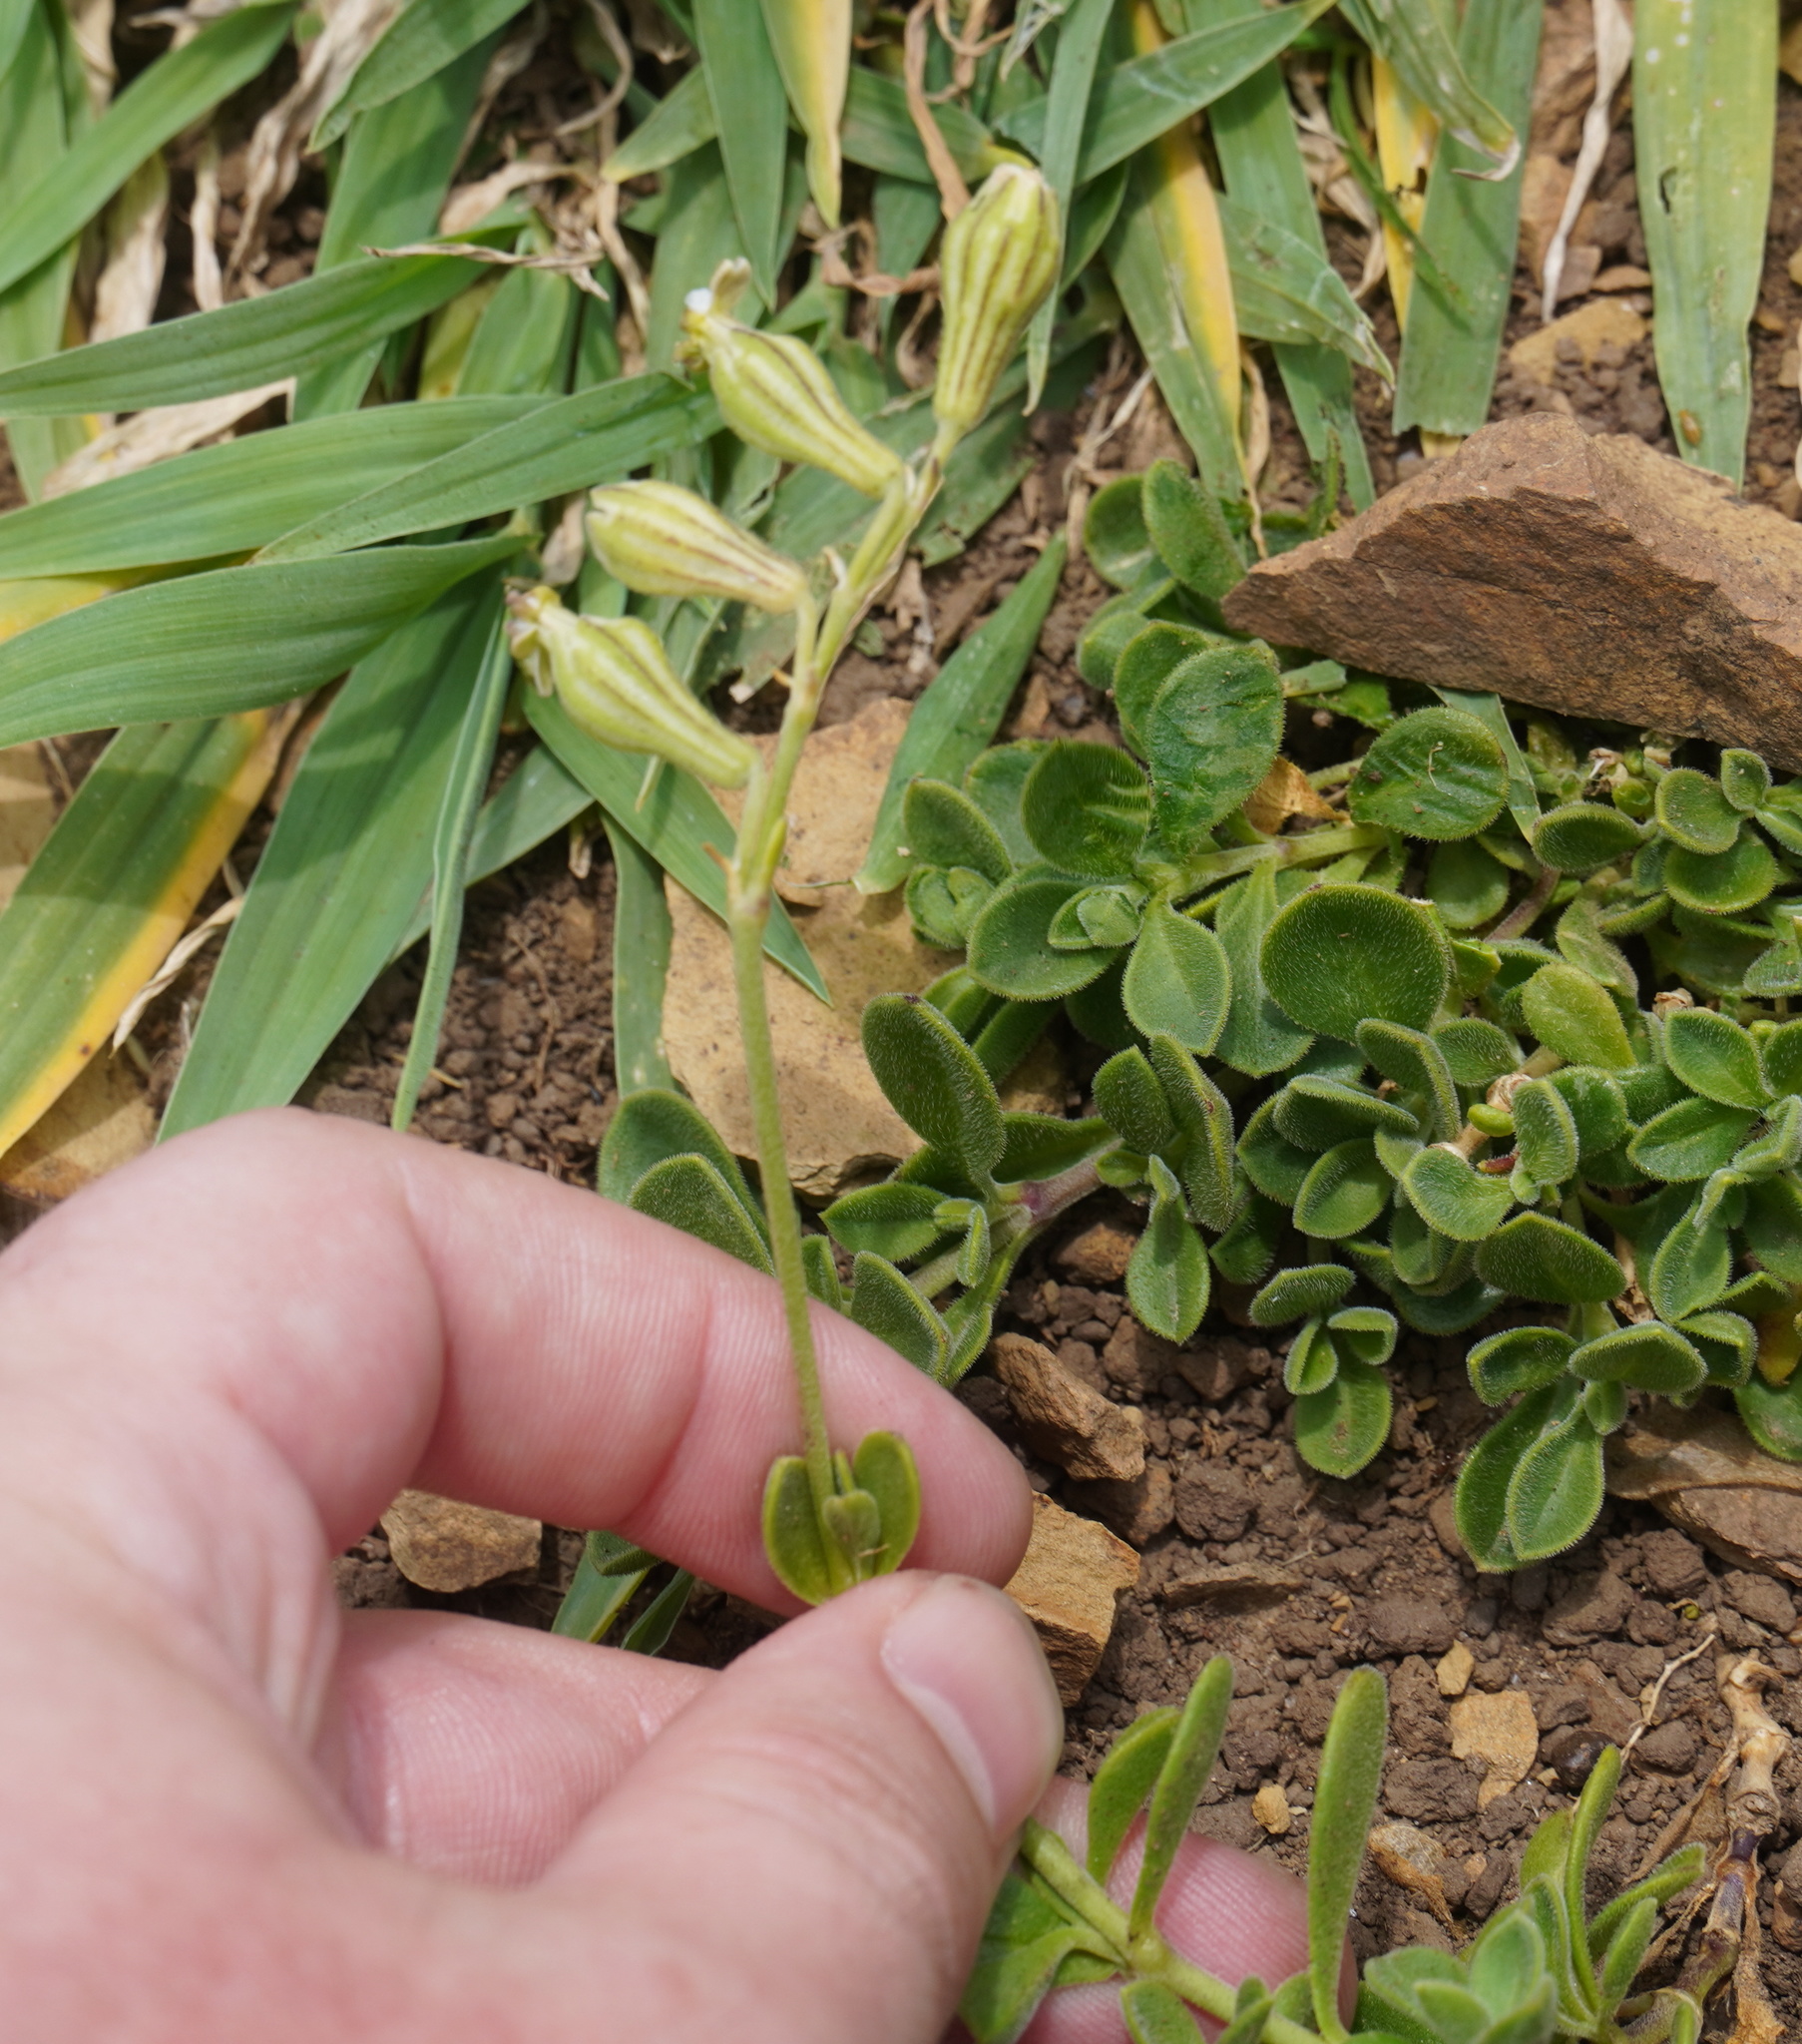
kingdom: Plantae
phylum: Tracheophyta
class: Magnoliopsida
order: Caryophyllales
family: Caryophyllaceae
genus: Silene
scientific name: Silene crassifolia
